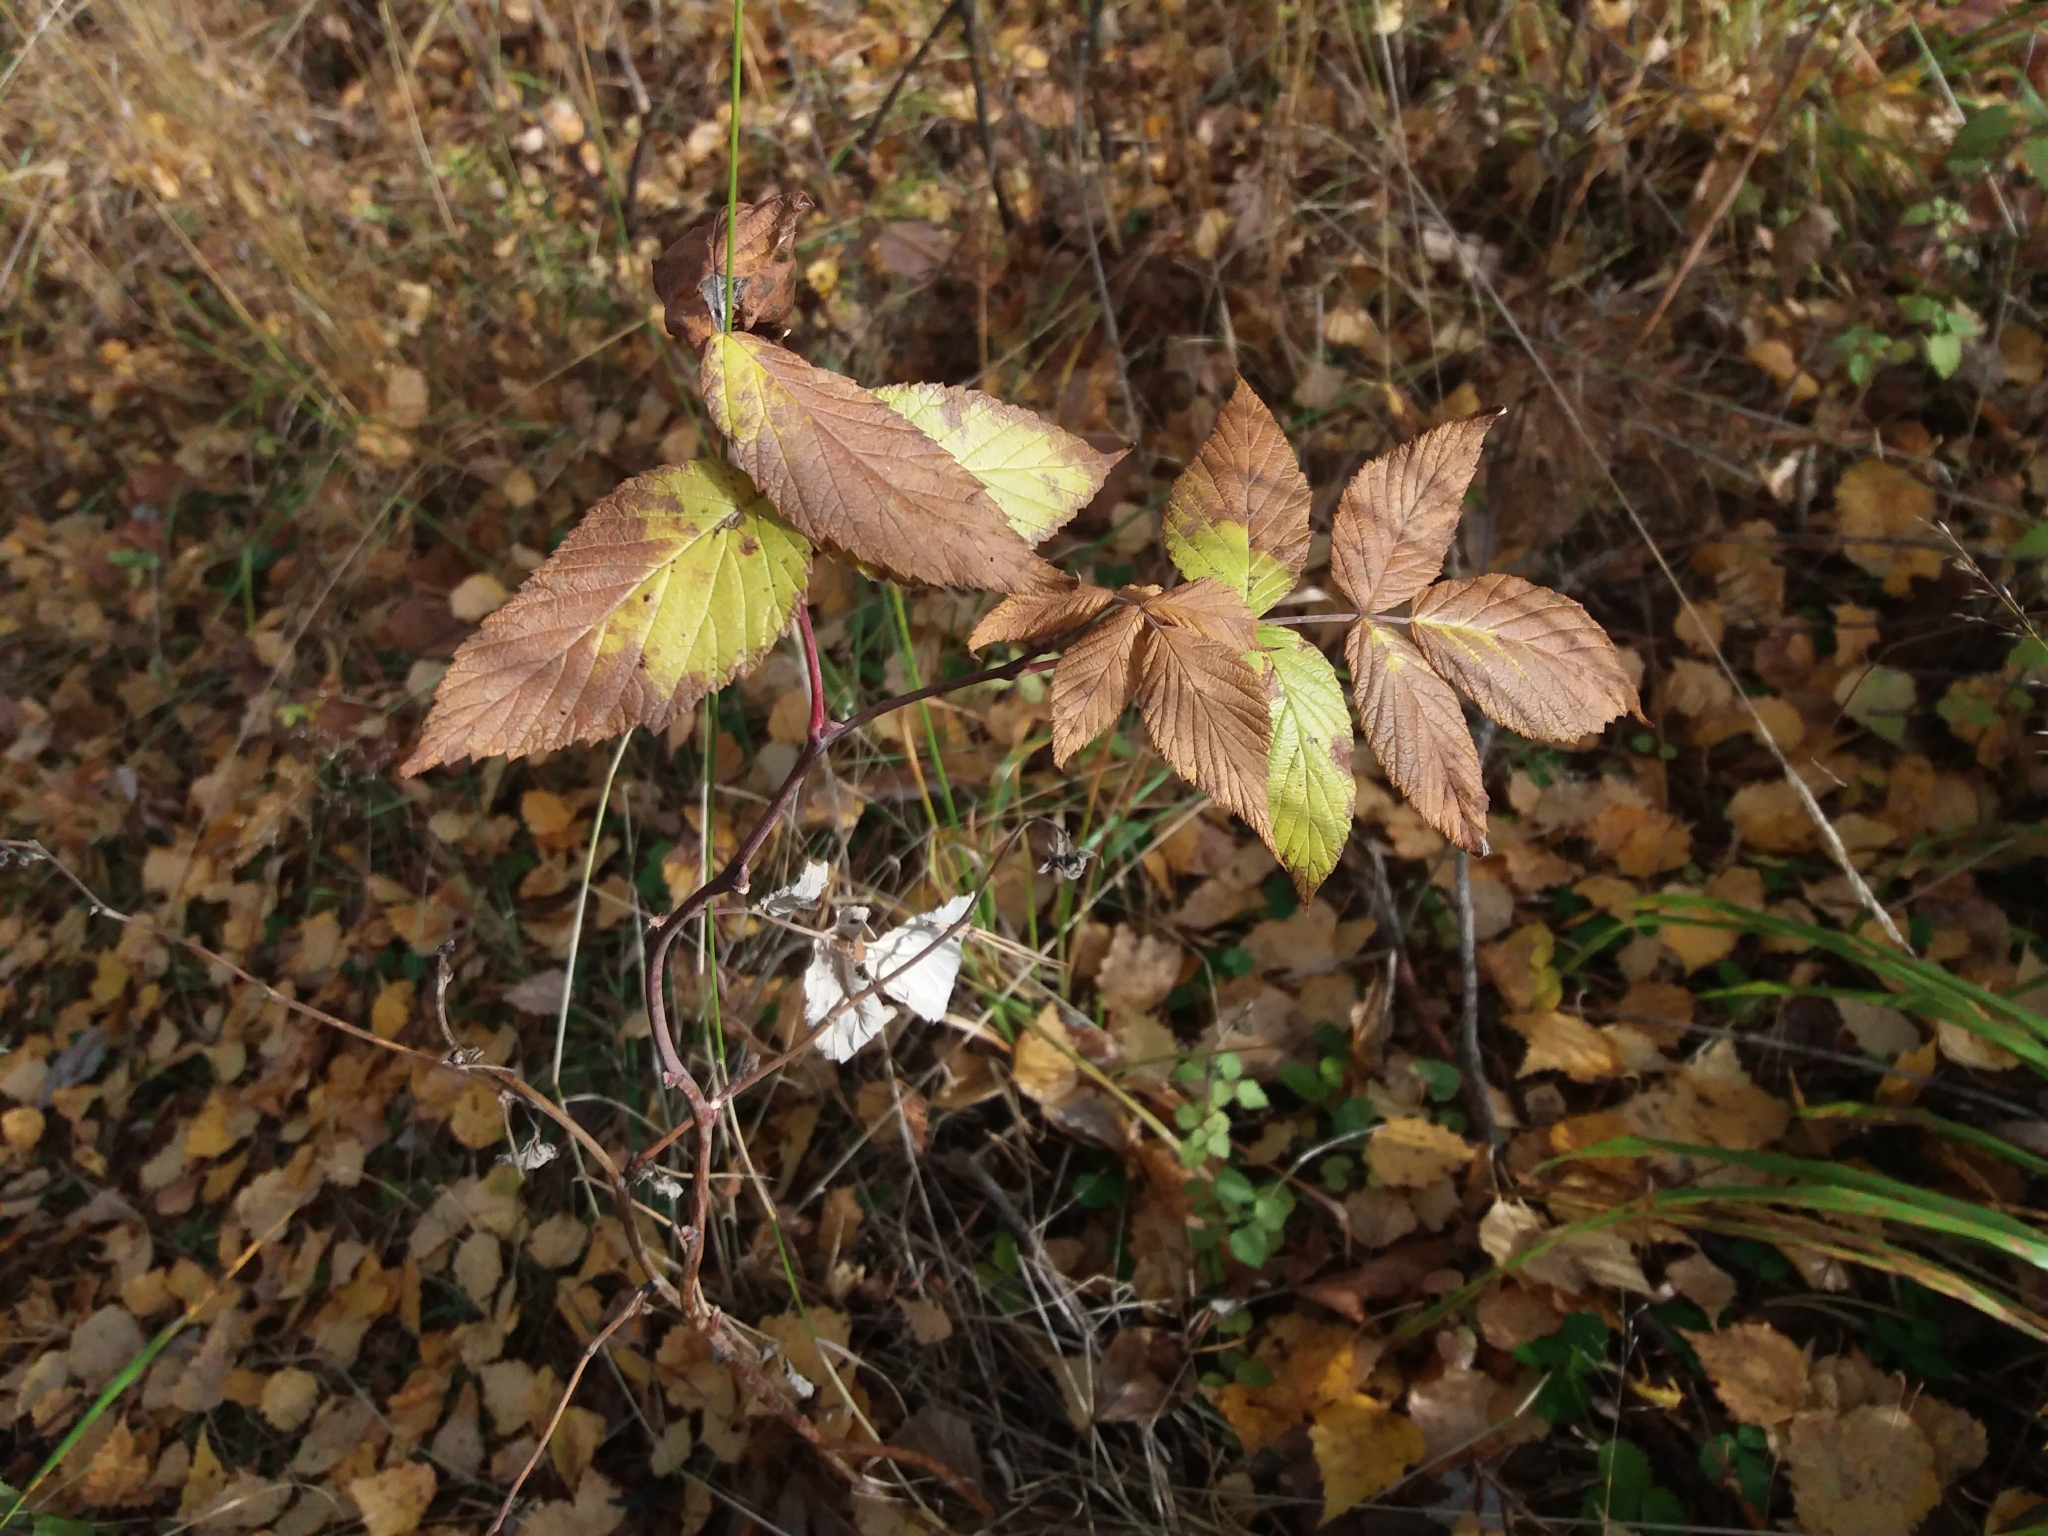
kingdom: Plantae
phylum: Tracheophyta
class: Magnoliopsida
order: Rosales
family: Rosaceae
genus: Rubus
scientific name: Rubus idaeus
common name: Raspberry
